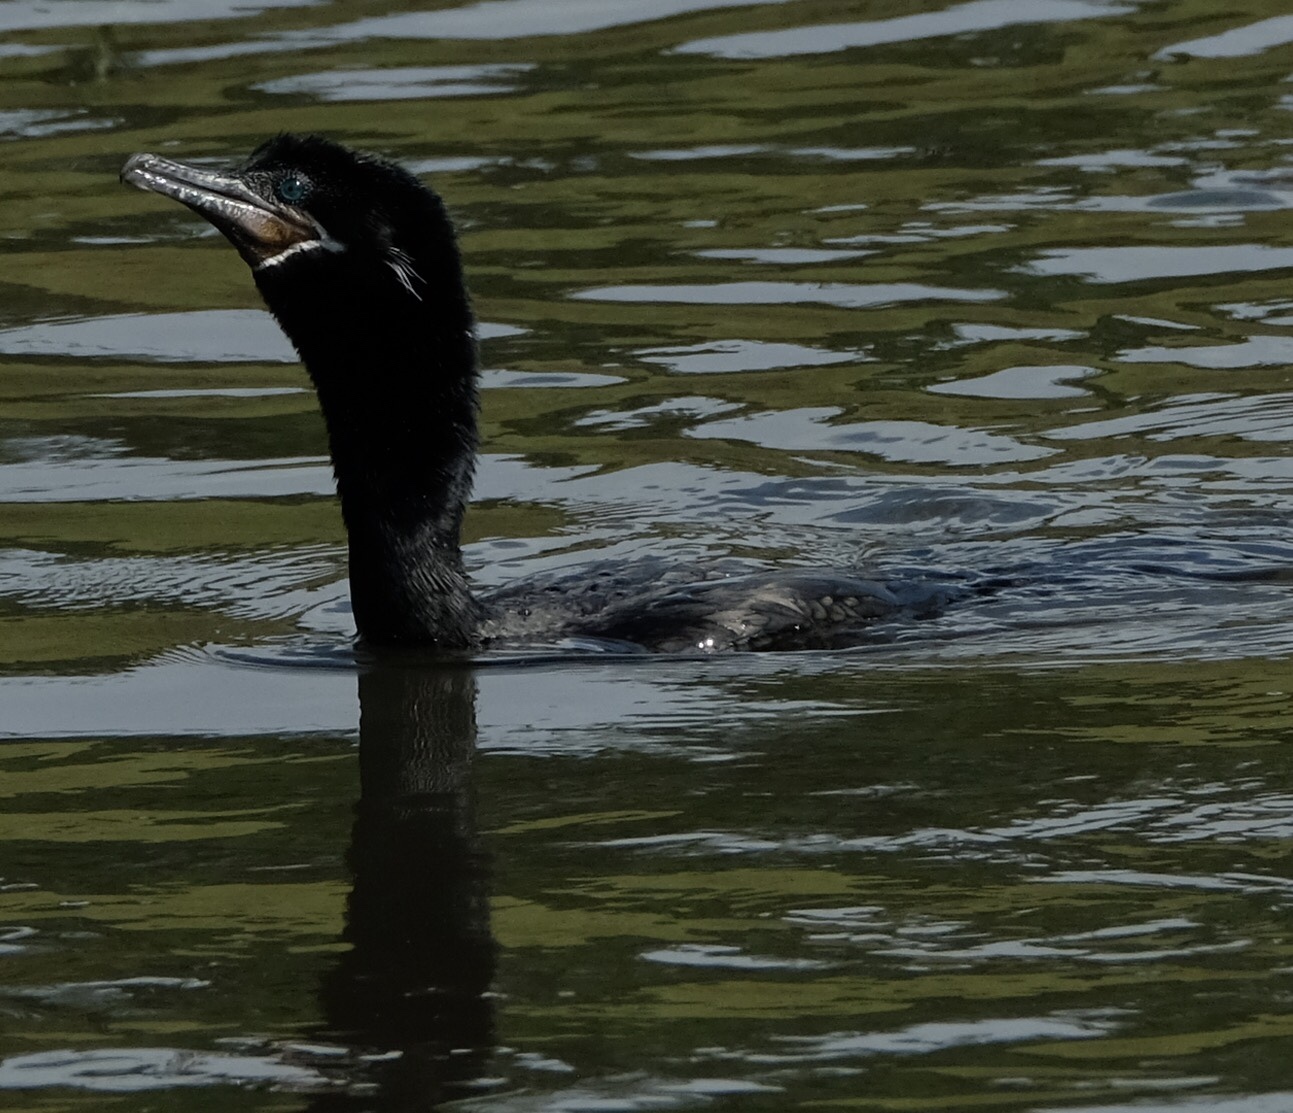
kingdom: Animalia
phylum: Chordata
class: Aves
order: Suliformes
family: Phalacrocoracidae
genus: Phalacrocorax
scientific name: Phalacrocorax brasilianus
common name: Neotropic cormorant
